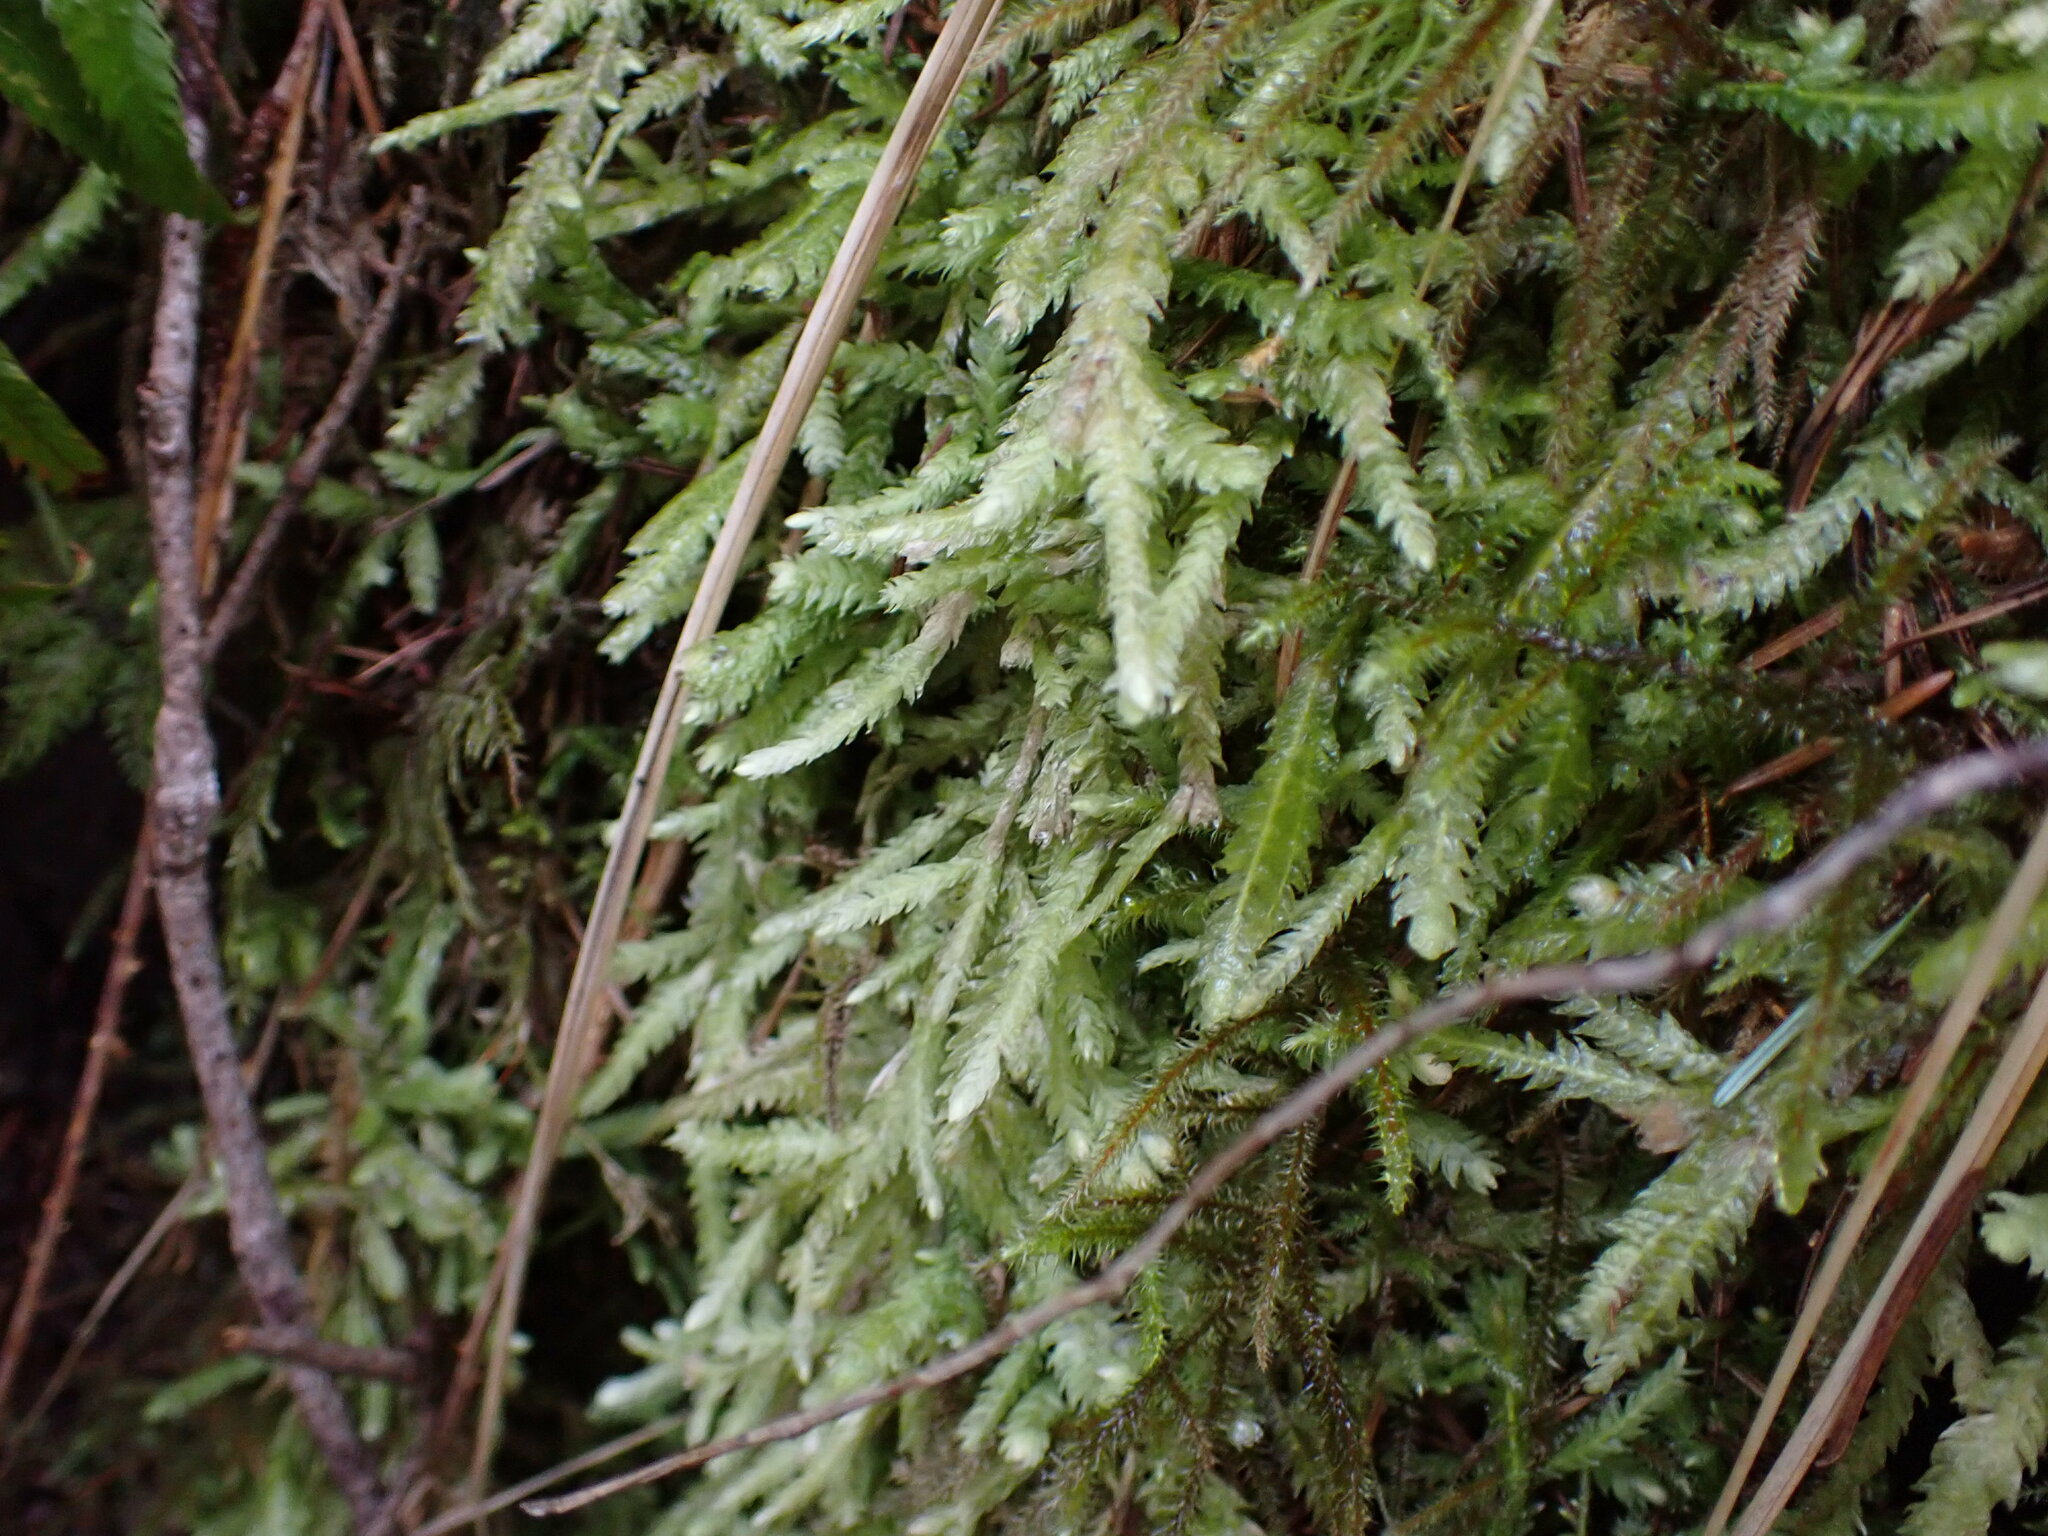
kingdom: Plantae
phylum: Bryophyta
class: Bryopsida
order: Hypnales
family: Plagiotheciaceae
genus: Plagiothecium
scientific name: Plagiothecium undulatum
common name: Waved silk-moss
